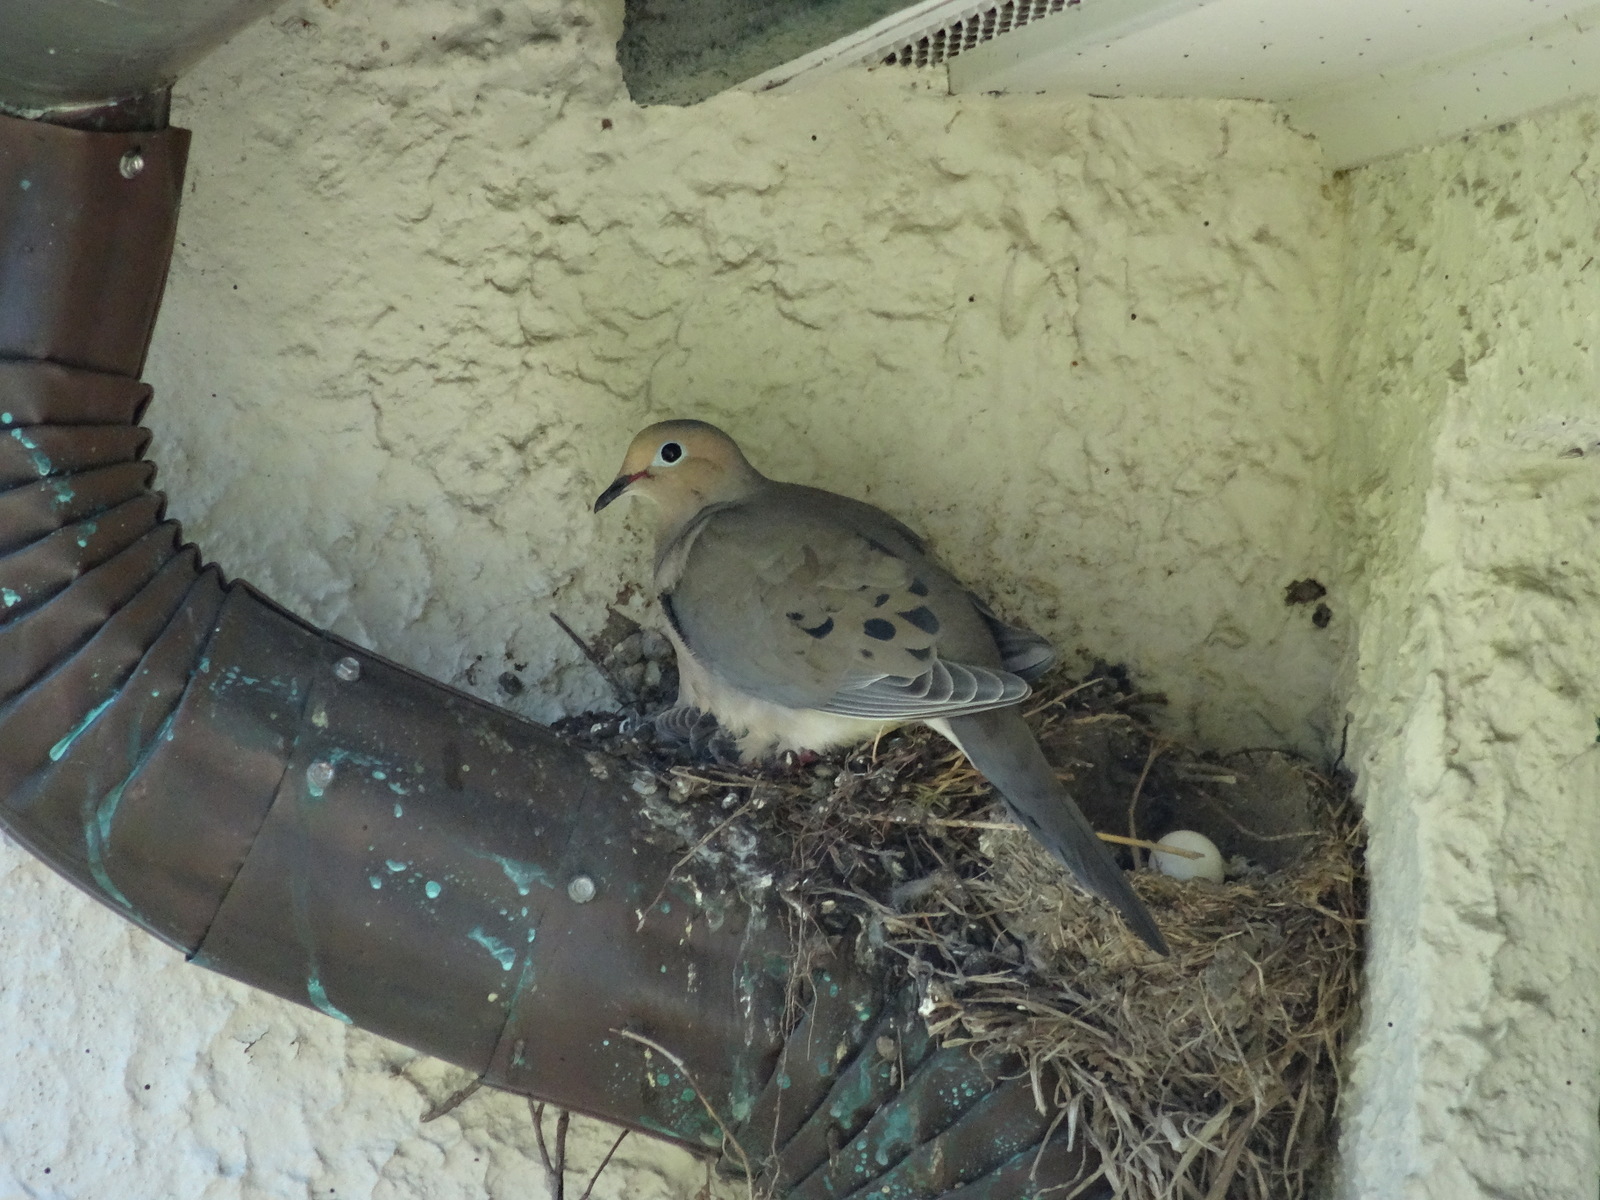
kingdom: Animalia
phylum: Chordata
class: Aves
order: Columbiformes
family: Columbidae
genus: Zenaida
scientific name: Zenaida macroura
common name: Mourning dove
